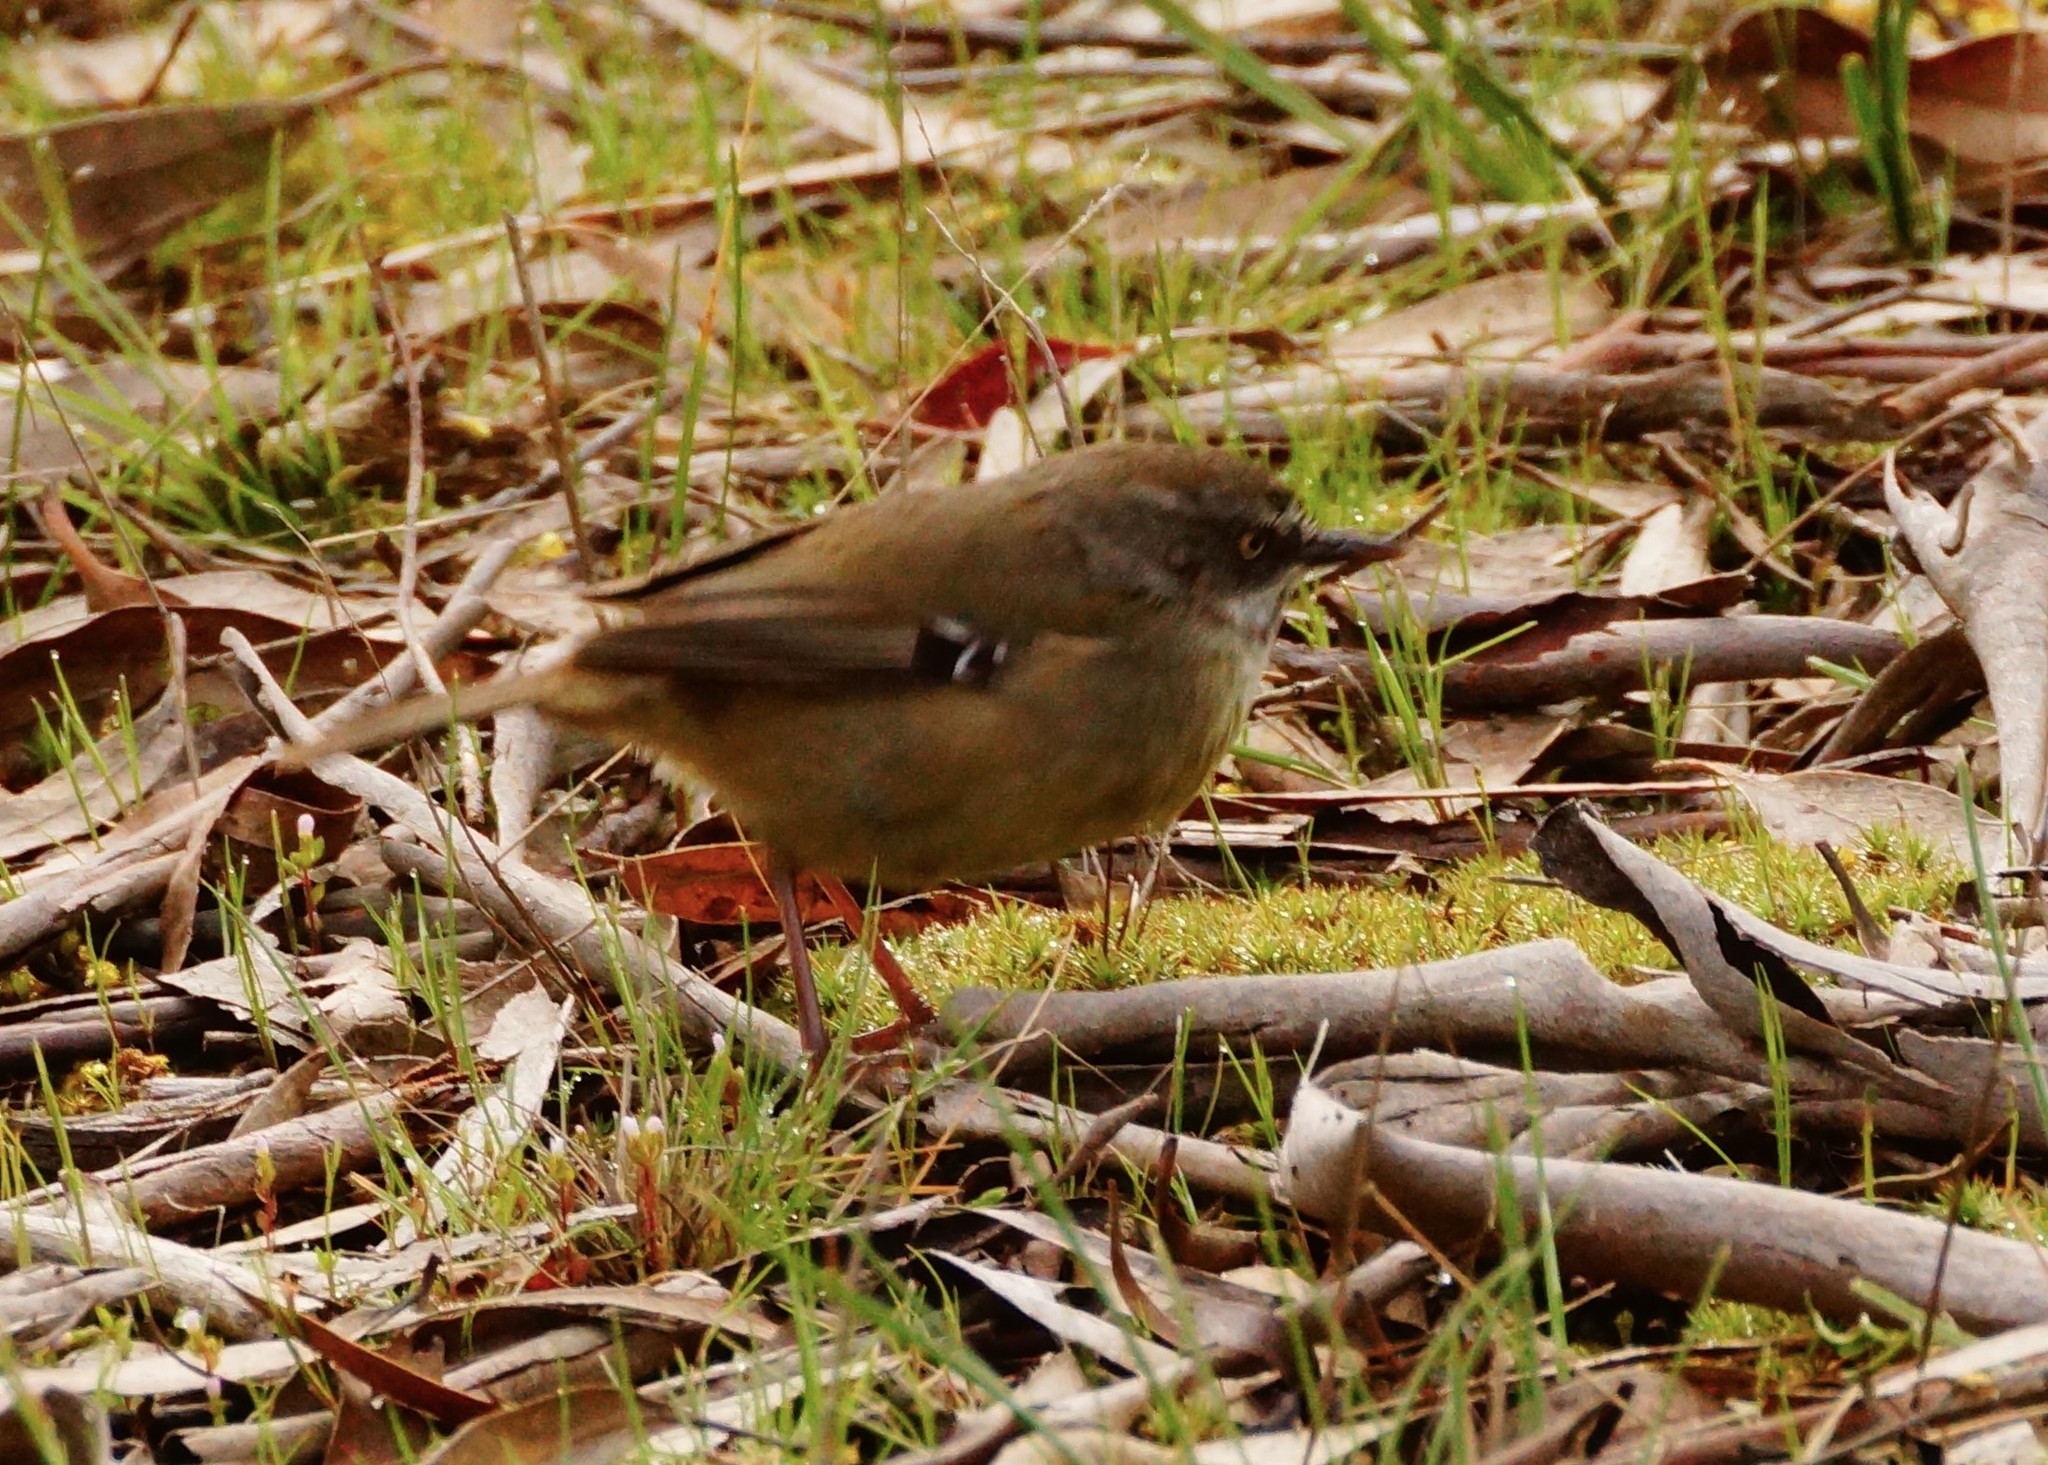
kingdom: Animalia
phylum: Chordata
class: Aves
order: Passeriformes
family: Acanthizidae
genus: Sericornis
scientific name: Sericornis frontalis
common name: White-browed scrubwren
